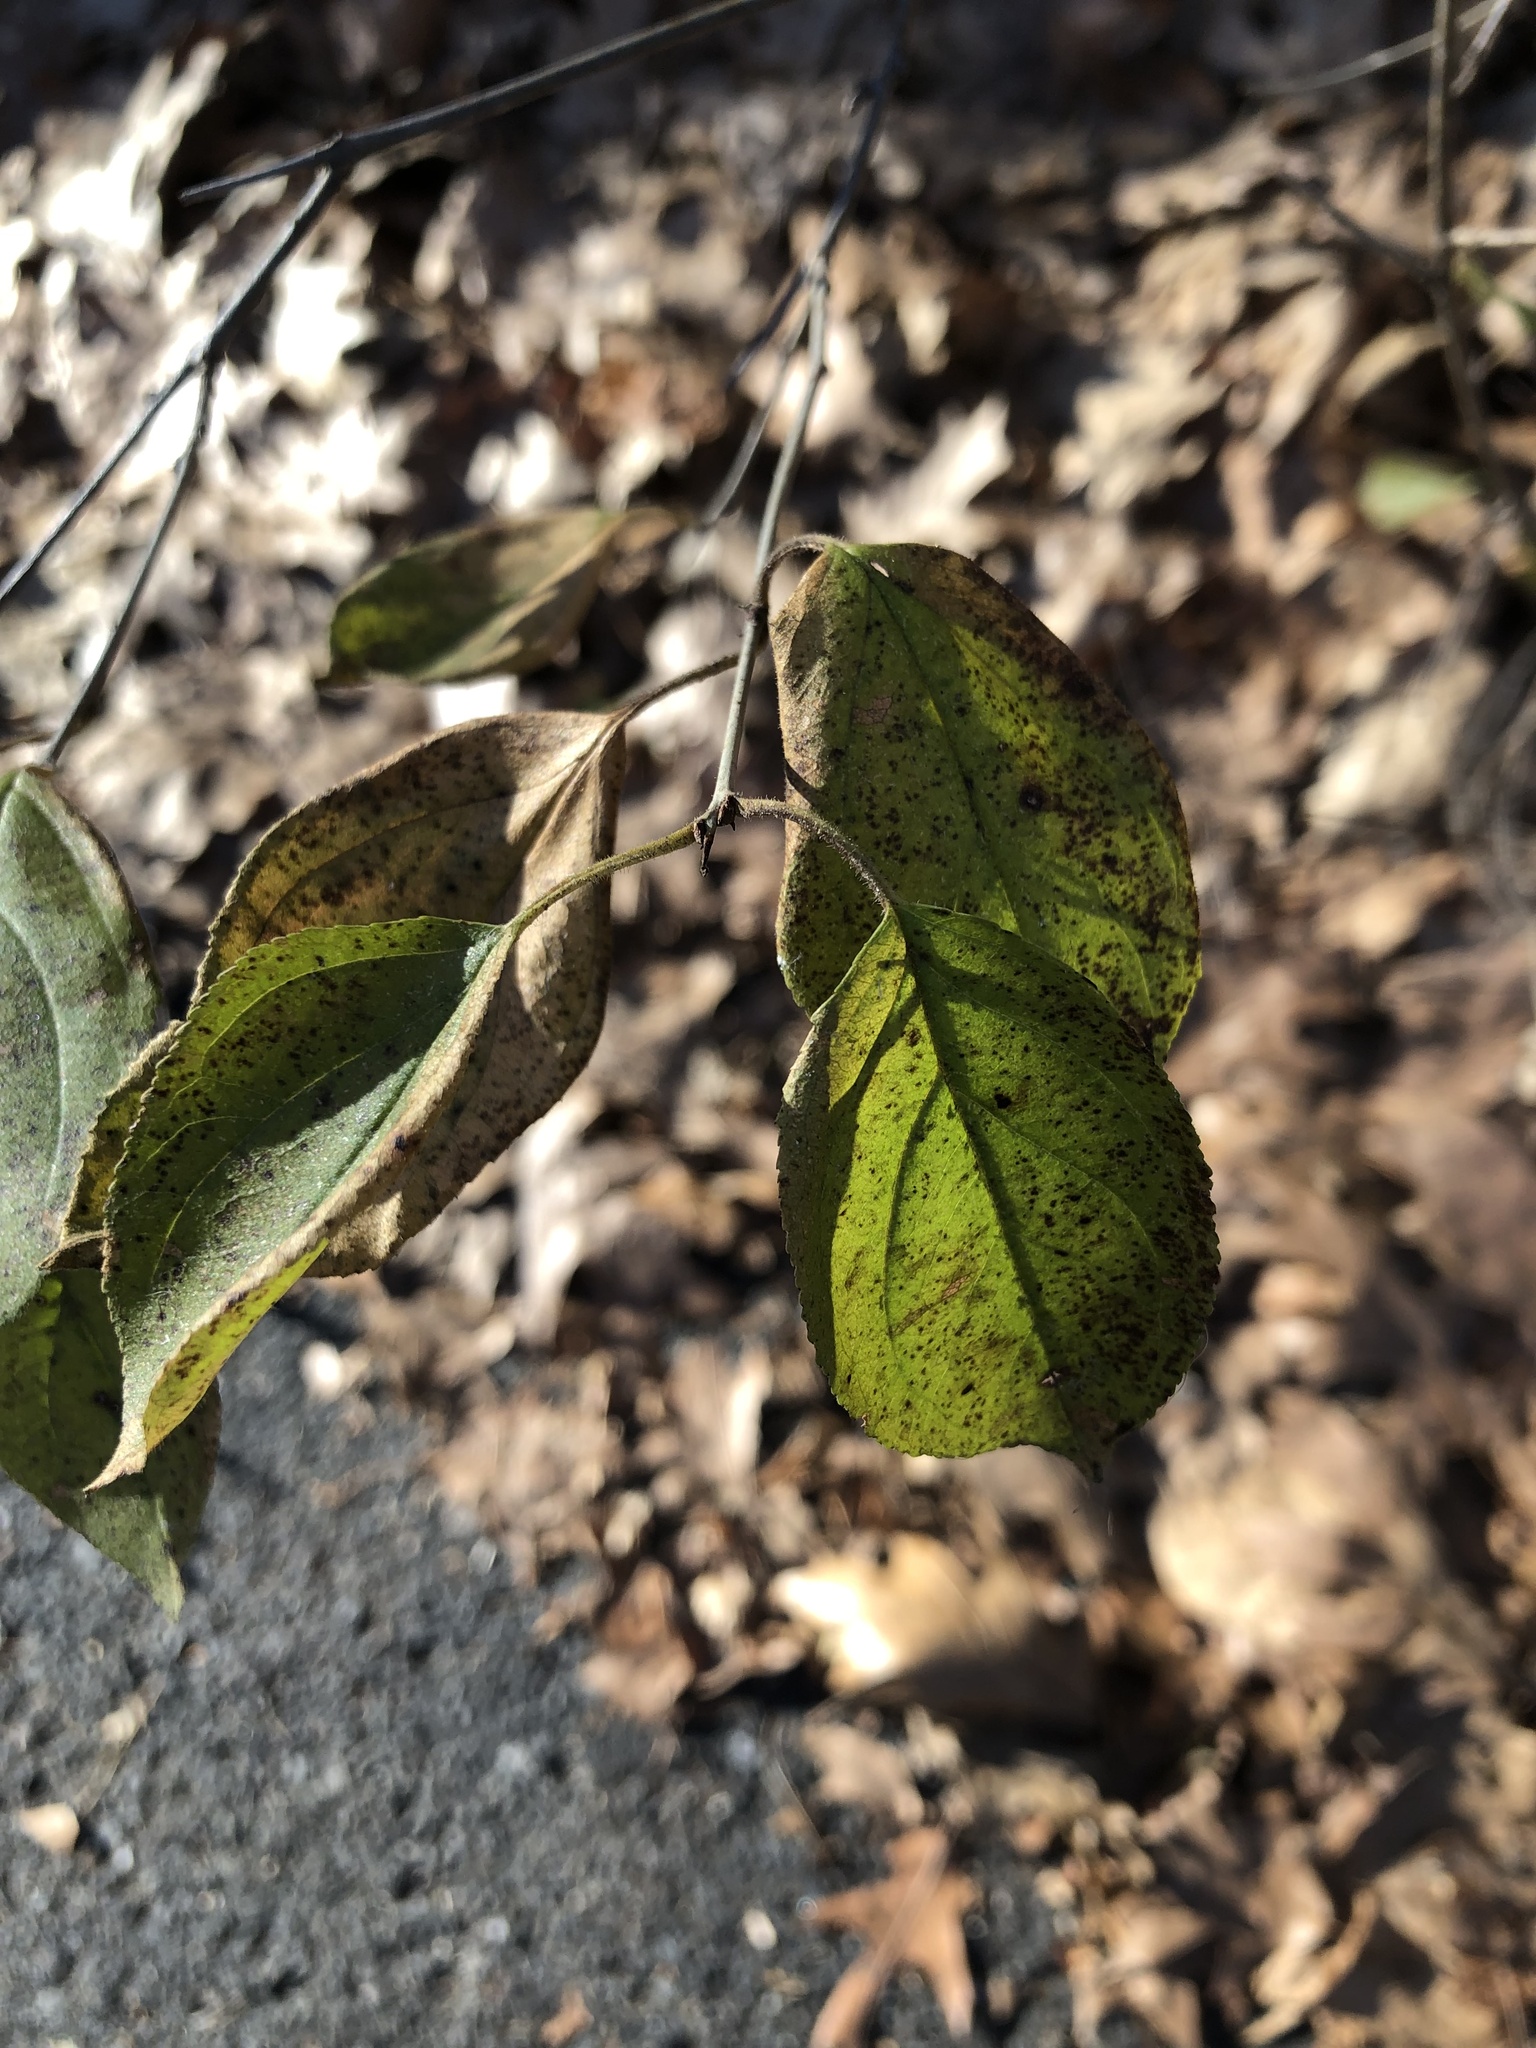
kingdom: Plantae
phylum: Tracheophyta
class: Magnoliopsida
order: Rosales
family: Rhamnaceae
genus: Rhamnus
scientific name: Rhamnus cathartica
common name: Common buckthorn
